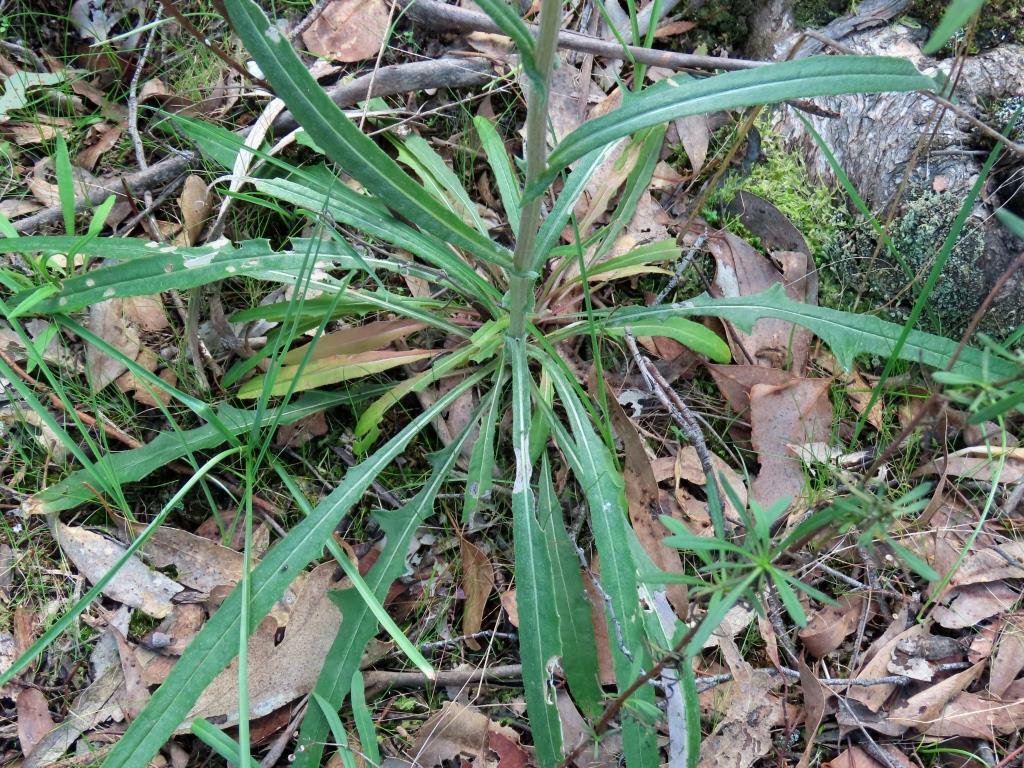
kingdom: Plantae
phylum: Tracheophyta
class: Magnoliopsida
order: Asterales
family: Asteraceae
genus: Senecio
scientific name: Senecio phelleus
